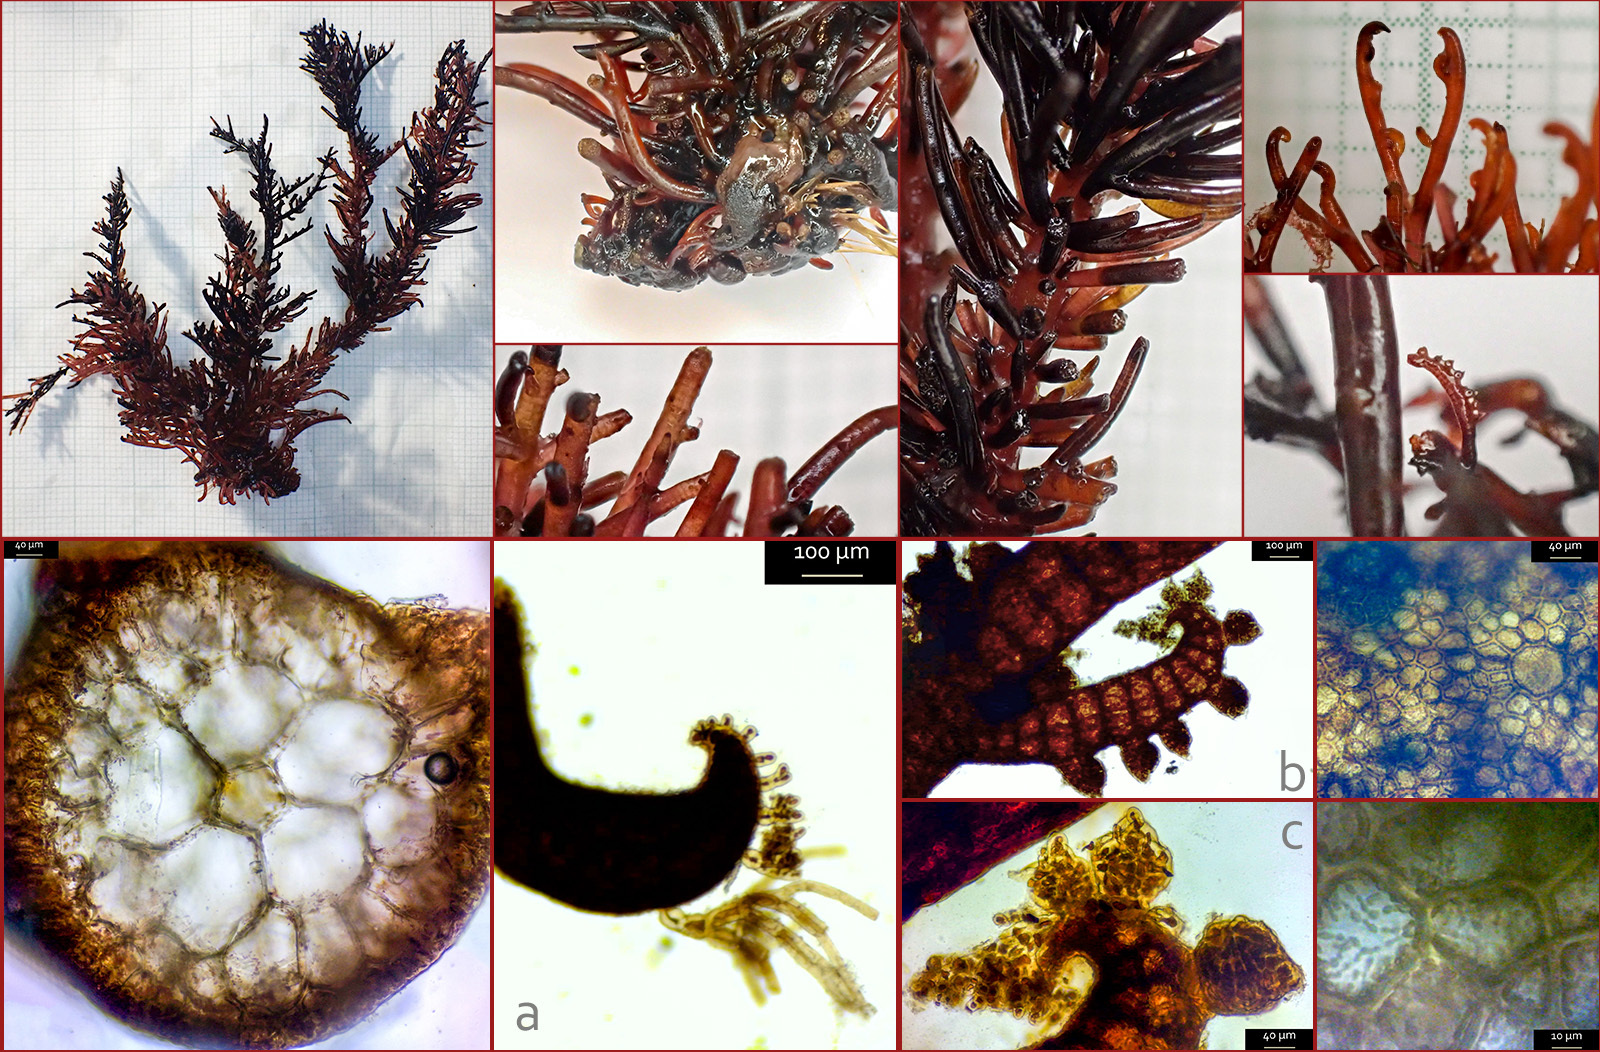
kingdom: Plantae
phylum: Rhodophyta
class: Florideophyceae
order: Ceramiales
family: Rhodomelaceae
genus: Halopithys
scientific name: Halopithys incurvus
